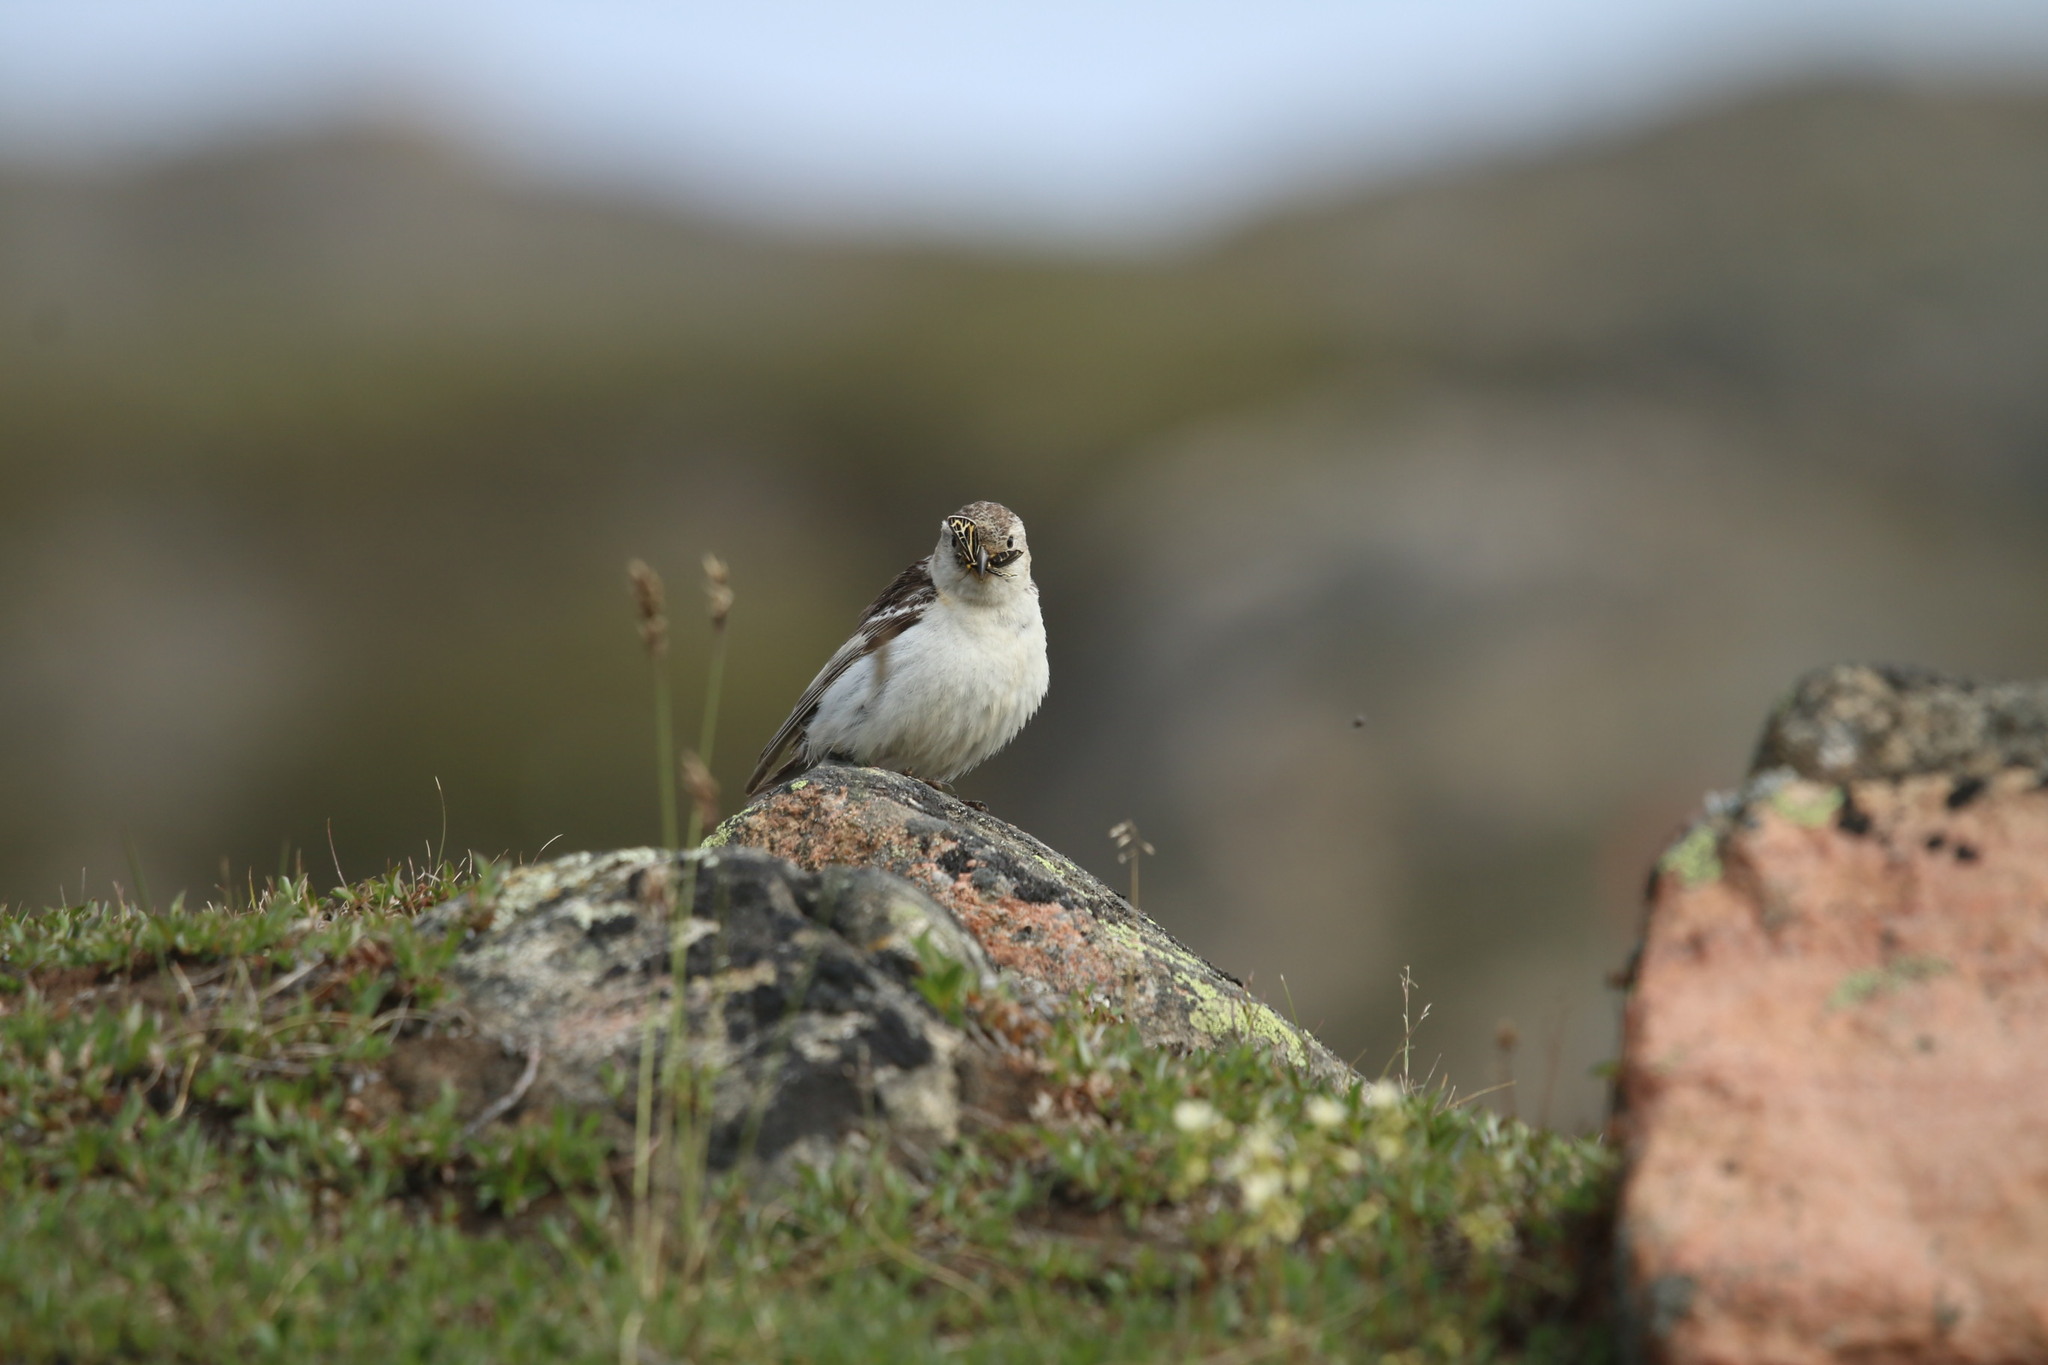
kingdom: Animalia
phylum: Arthropoda
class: Insecta
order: Lepidoptera
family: Erebidae
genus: Apantesis
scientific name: Apantesis quenseli
